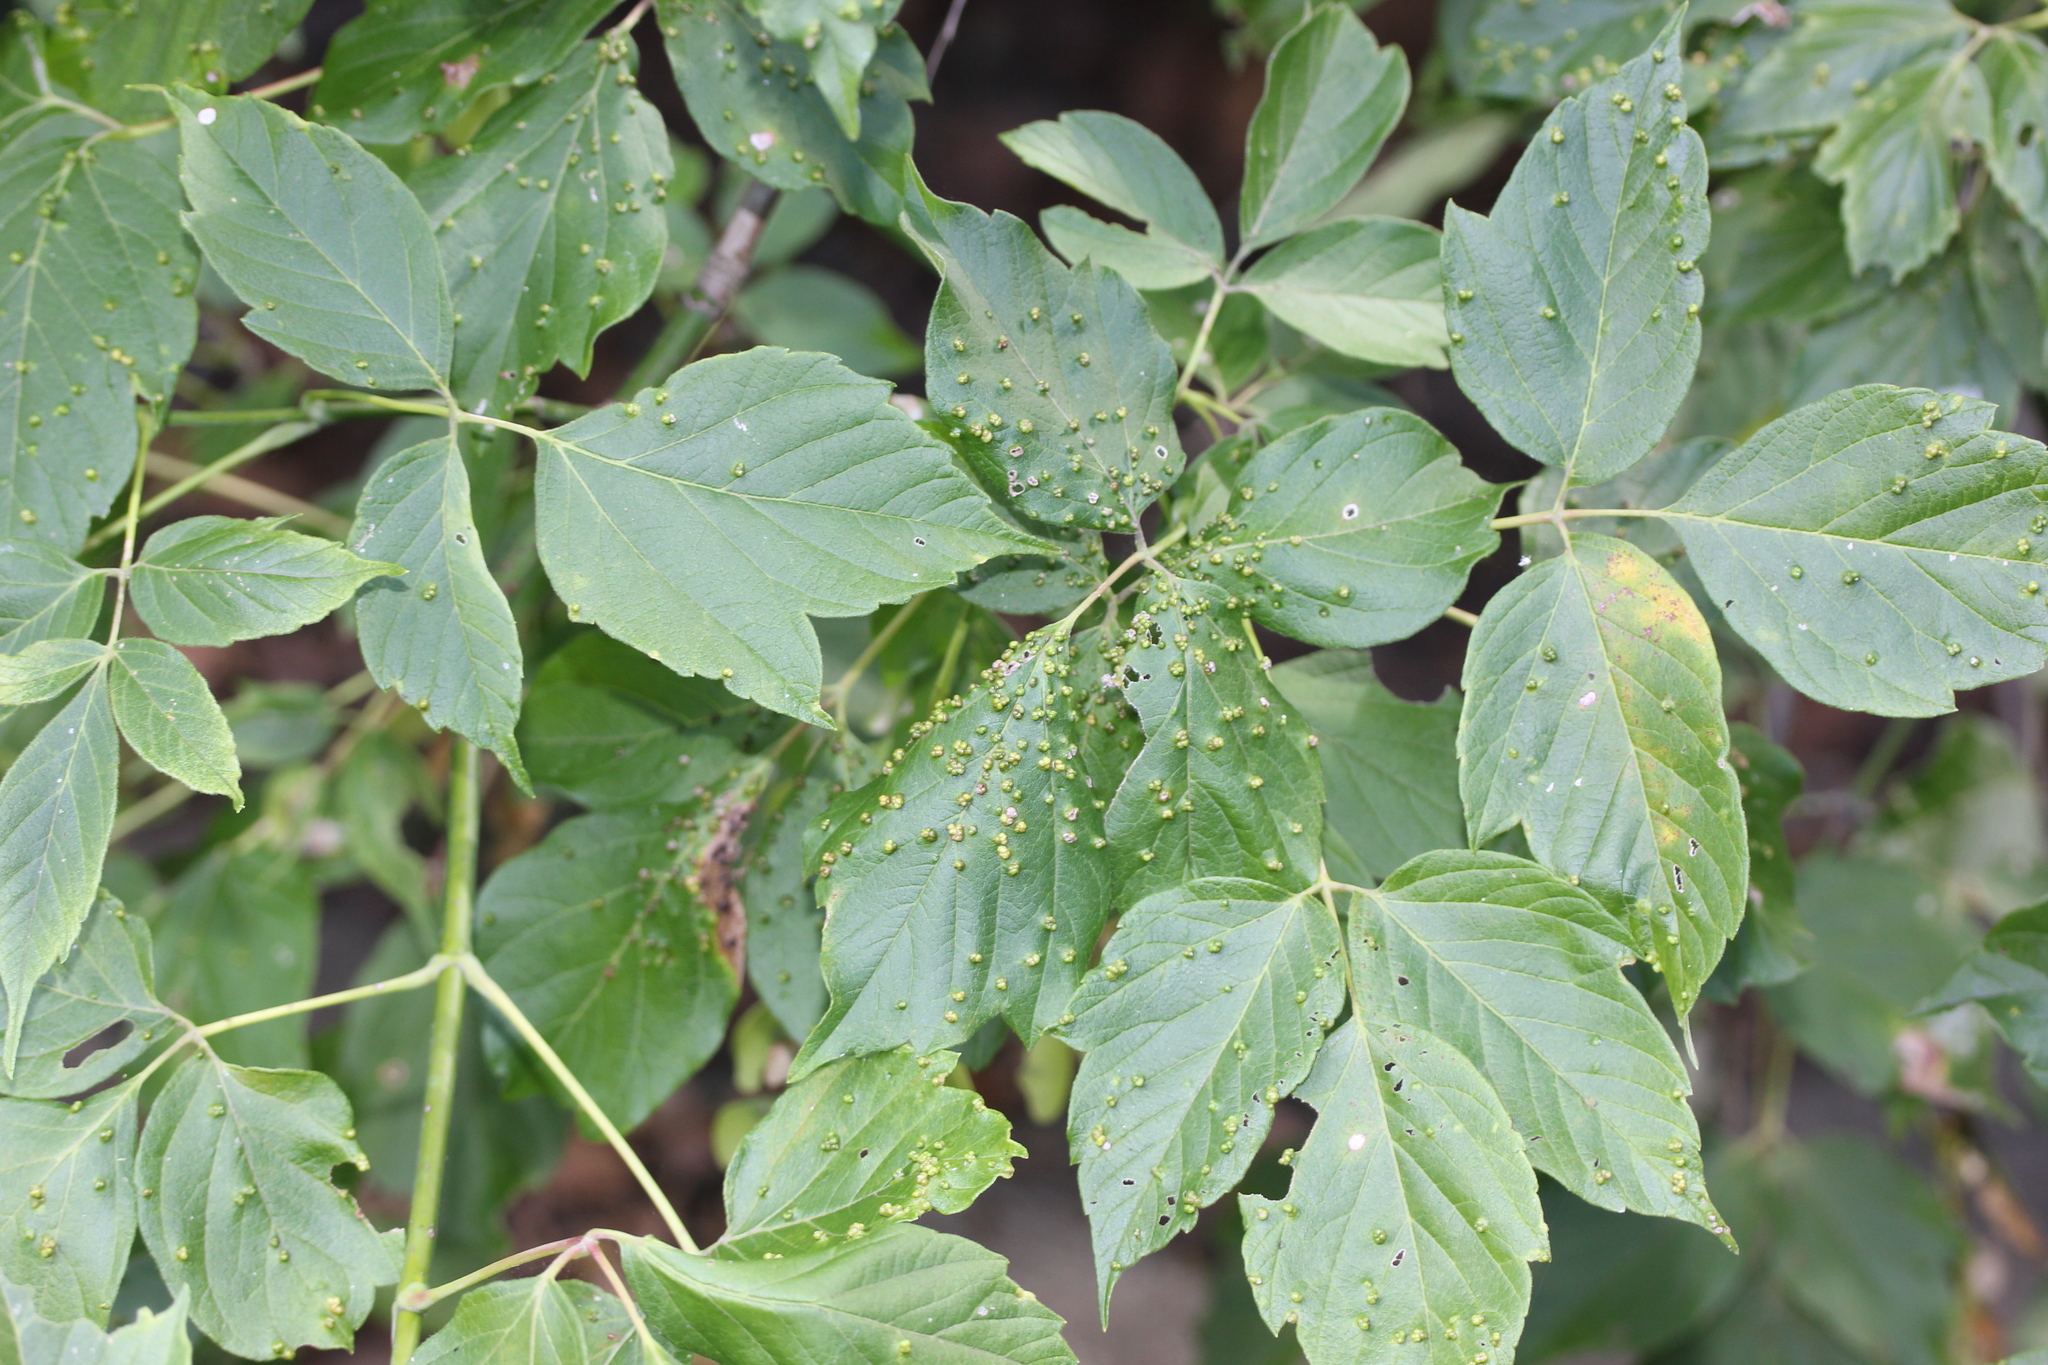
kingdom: Animalia
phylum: Arthropoda
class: Arachnida
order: Trombidiformes
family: Eriophyidae
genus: Aceria
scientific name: Aceria
